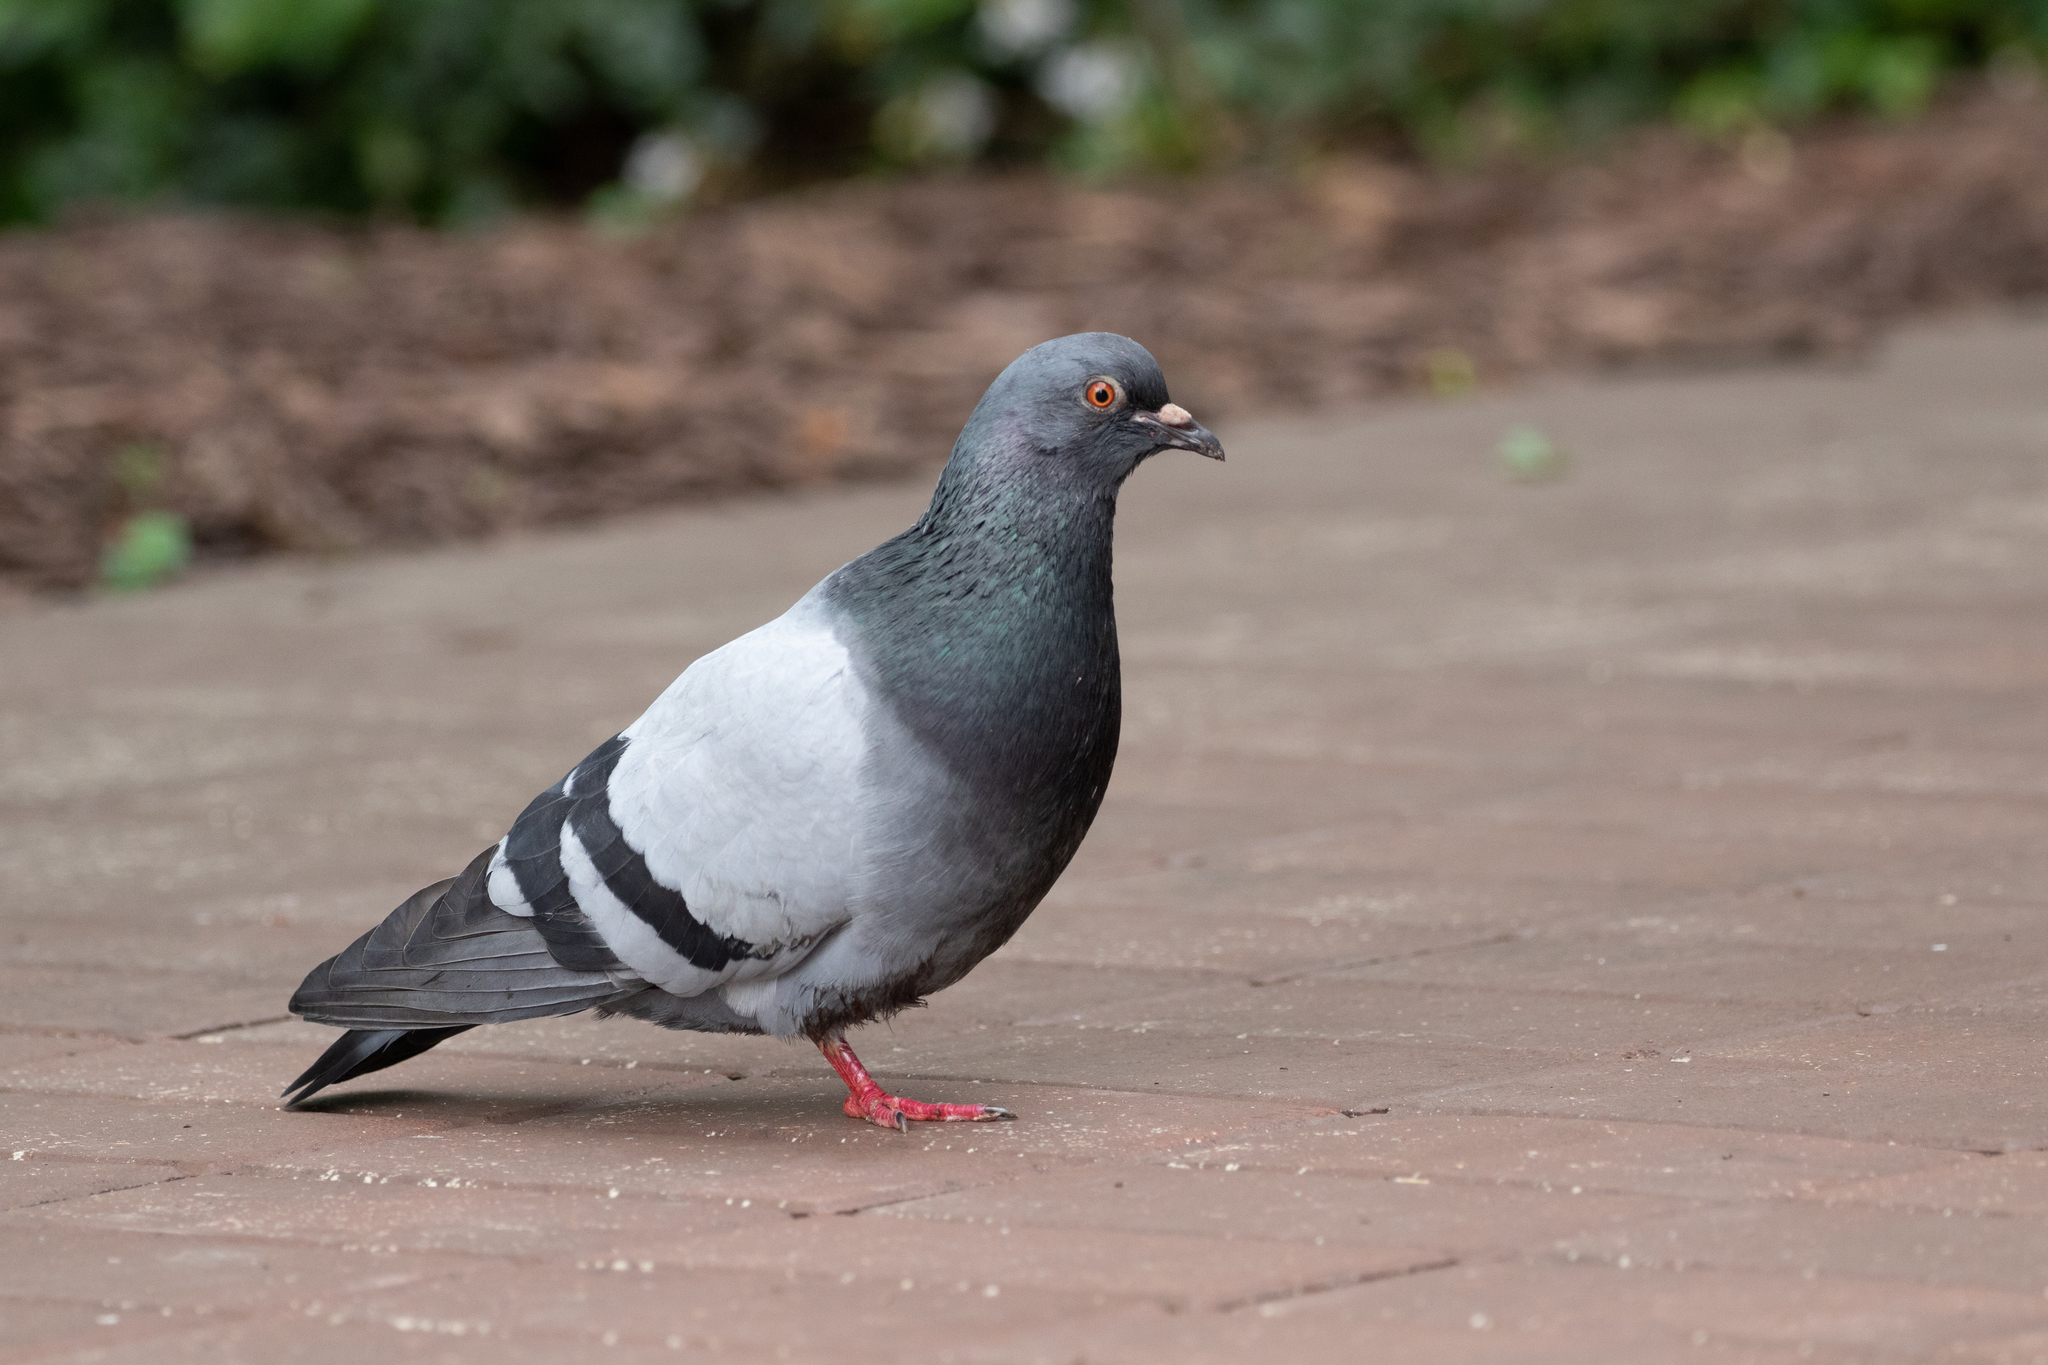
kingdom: Animalia
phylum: Chordata
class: Aves
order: Columbiformes
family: Columbidae
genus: Columba
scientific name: Columba livia
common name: Rock pigeon
